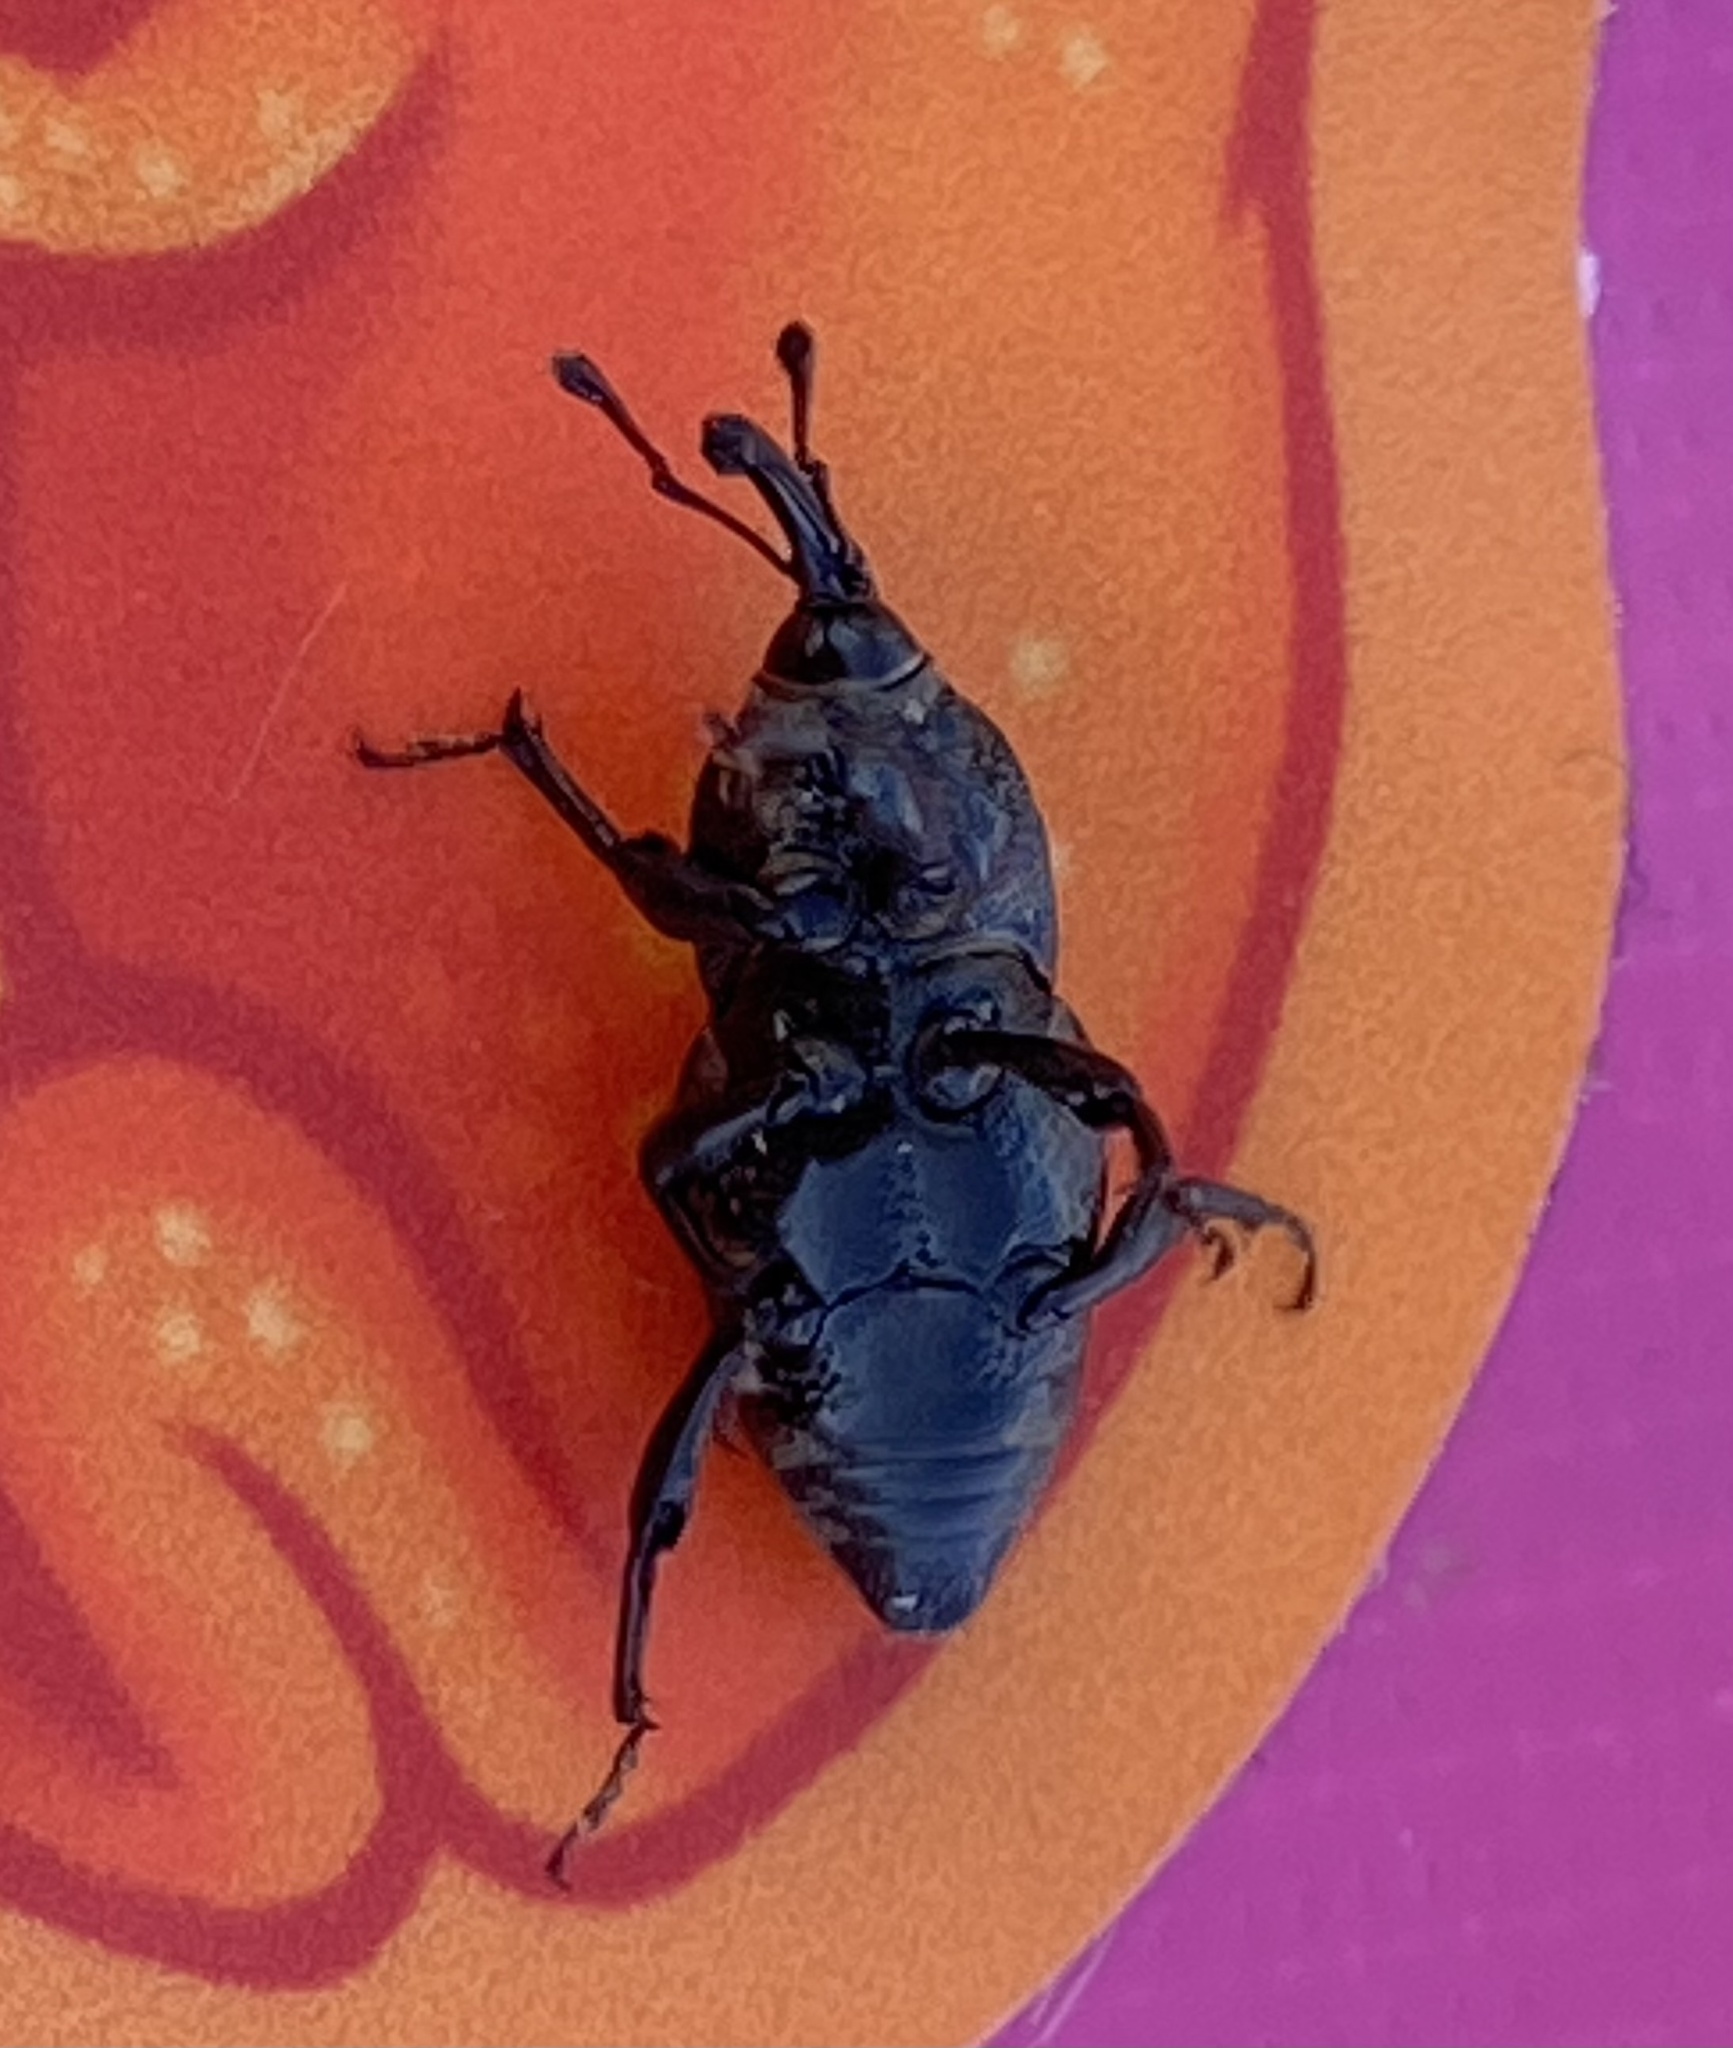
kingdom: Animalia
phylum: Arthropoda
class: Insecta
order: Coleoptera
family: Dryophthoridae
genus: Sphenophorus
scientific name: Sphenophorus cariosus
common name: Weevil
